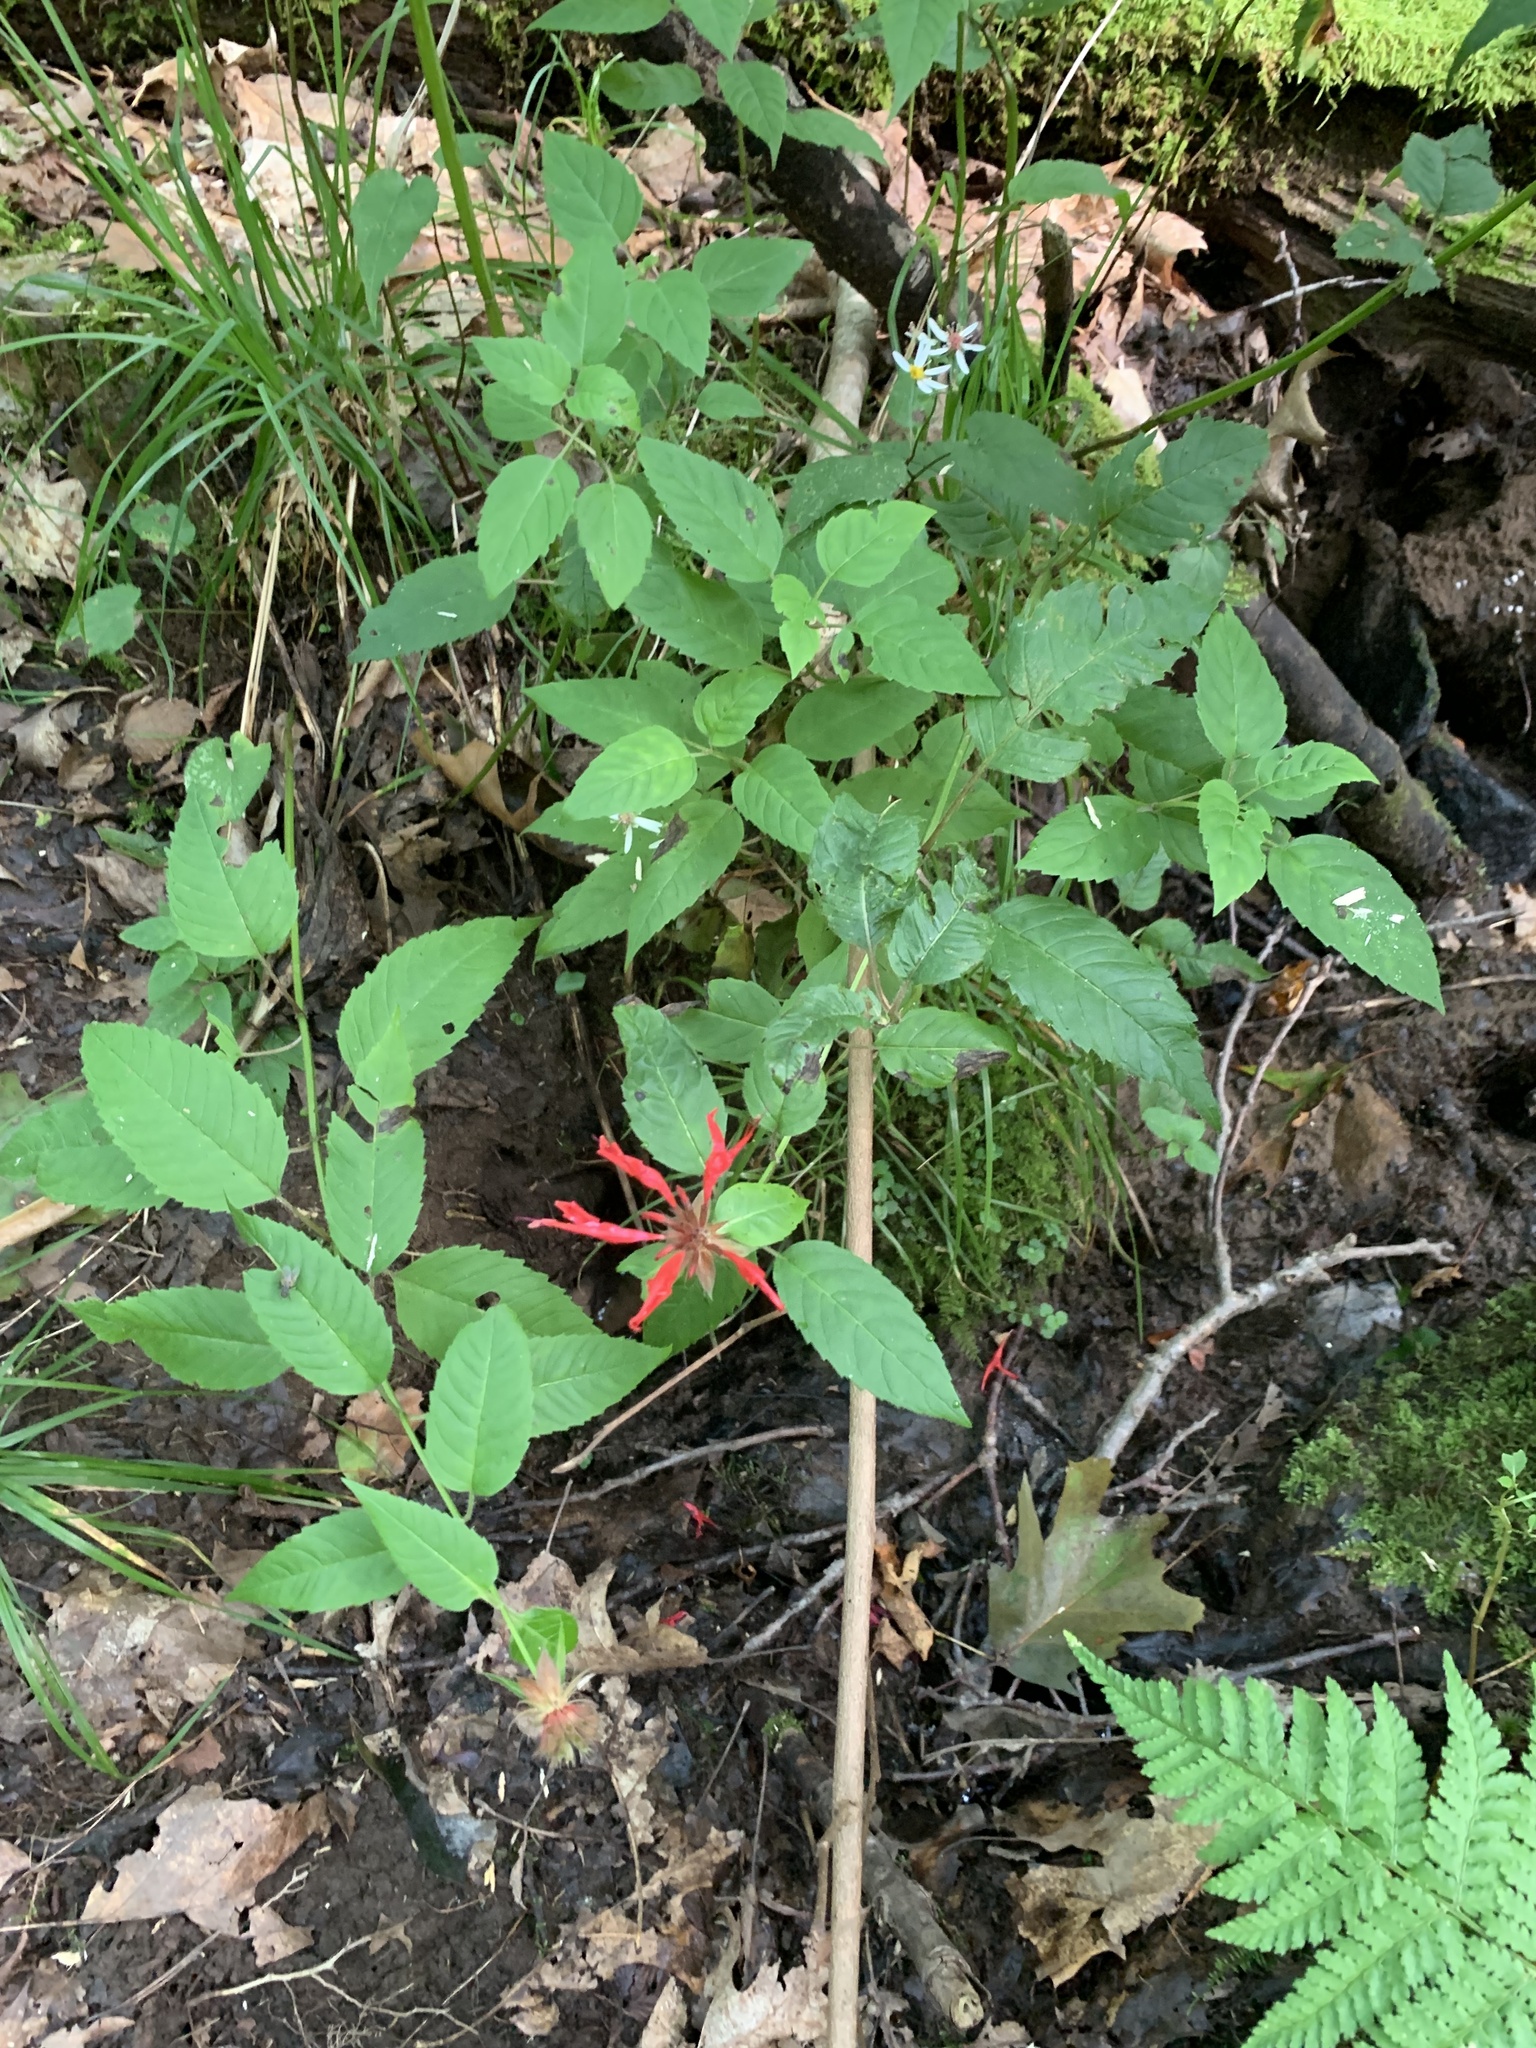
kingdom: Plantae
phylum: Tracheophyta
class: Magnoliopsida
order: Lamiales
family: Lamiaceae
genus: Monarda
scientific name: Monarda didyma
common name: Beebalm
